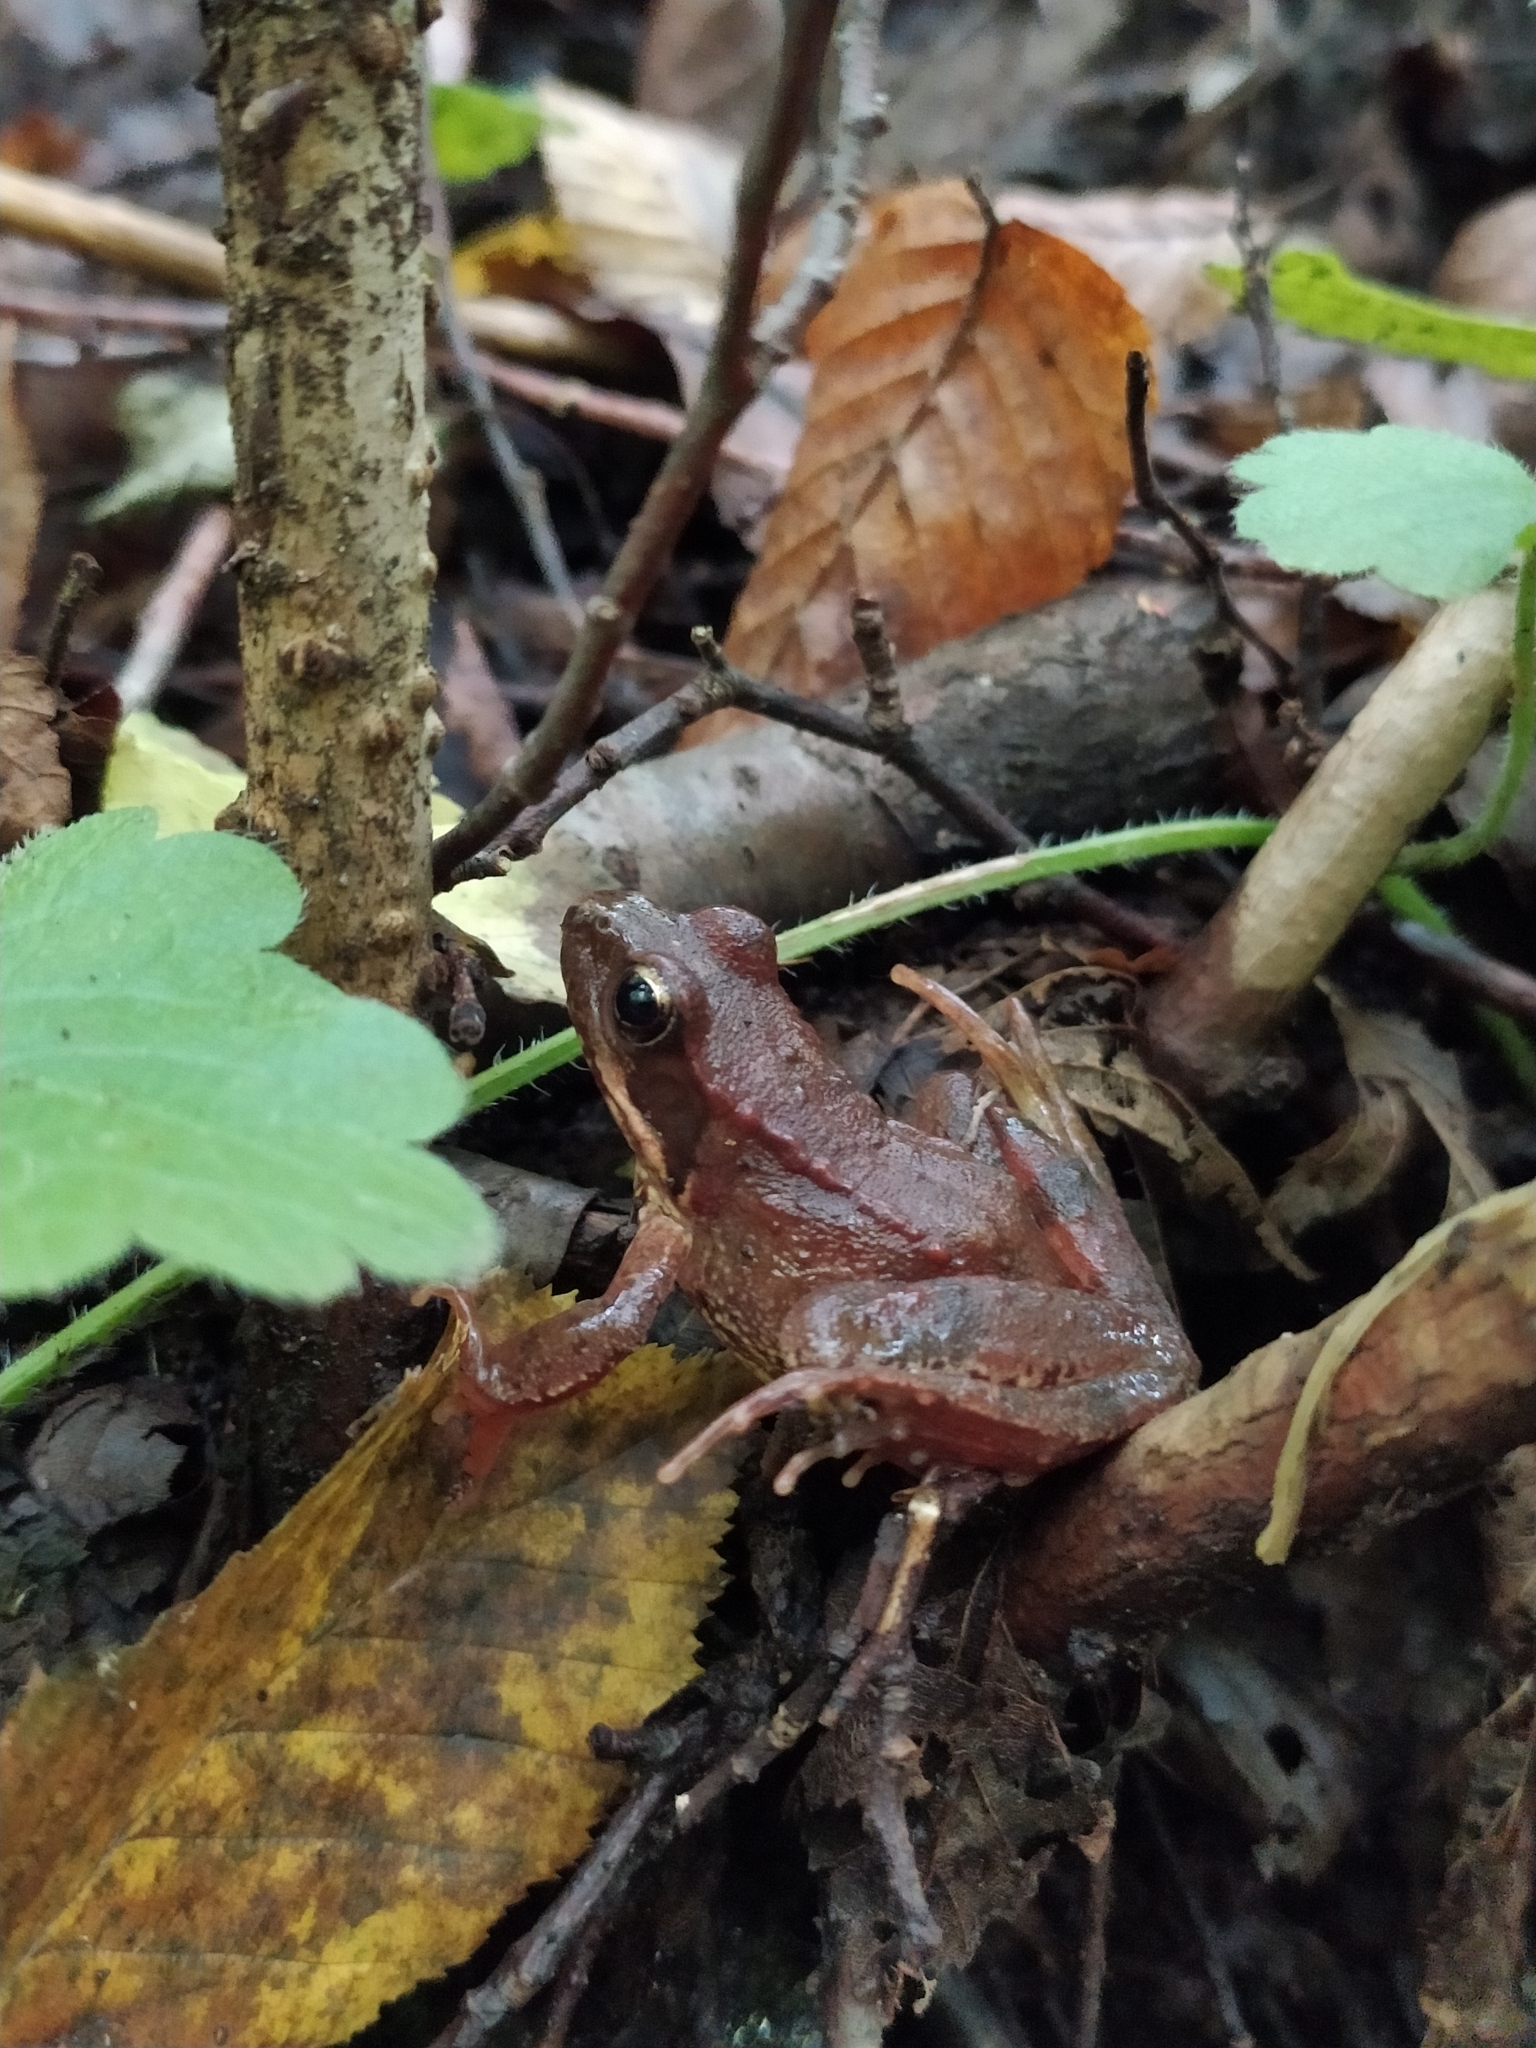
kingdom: Animalia
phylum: Chordata
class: Amphibia
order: Anura
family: Ranidae
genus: Rana
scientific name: Rana temporaria
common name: Common frog
